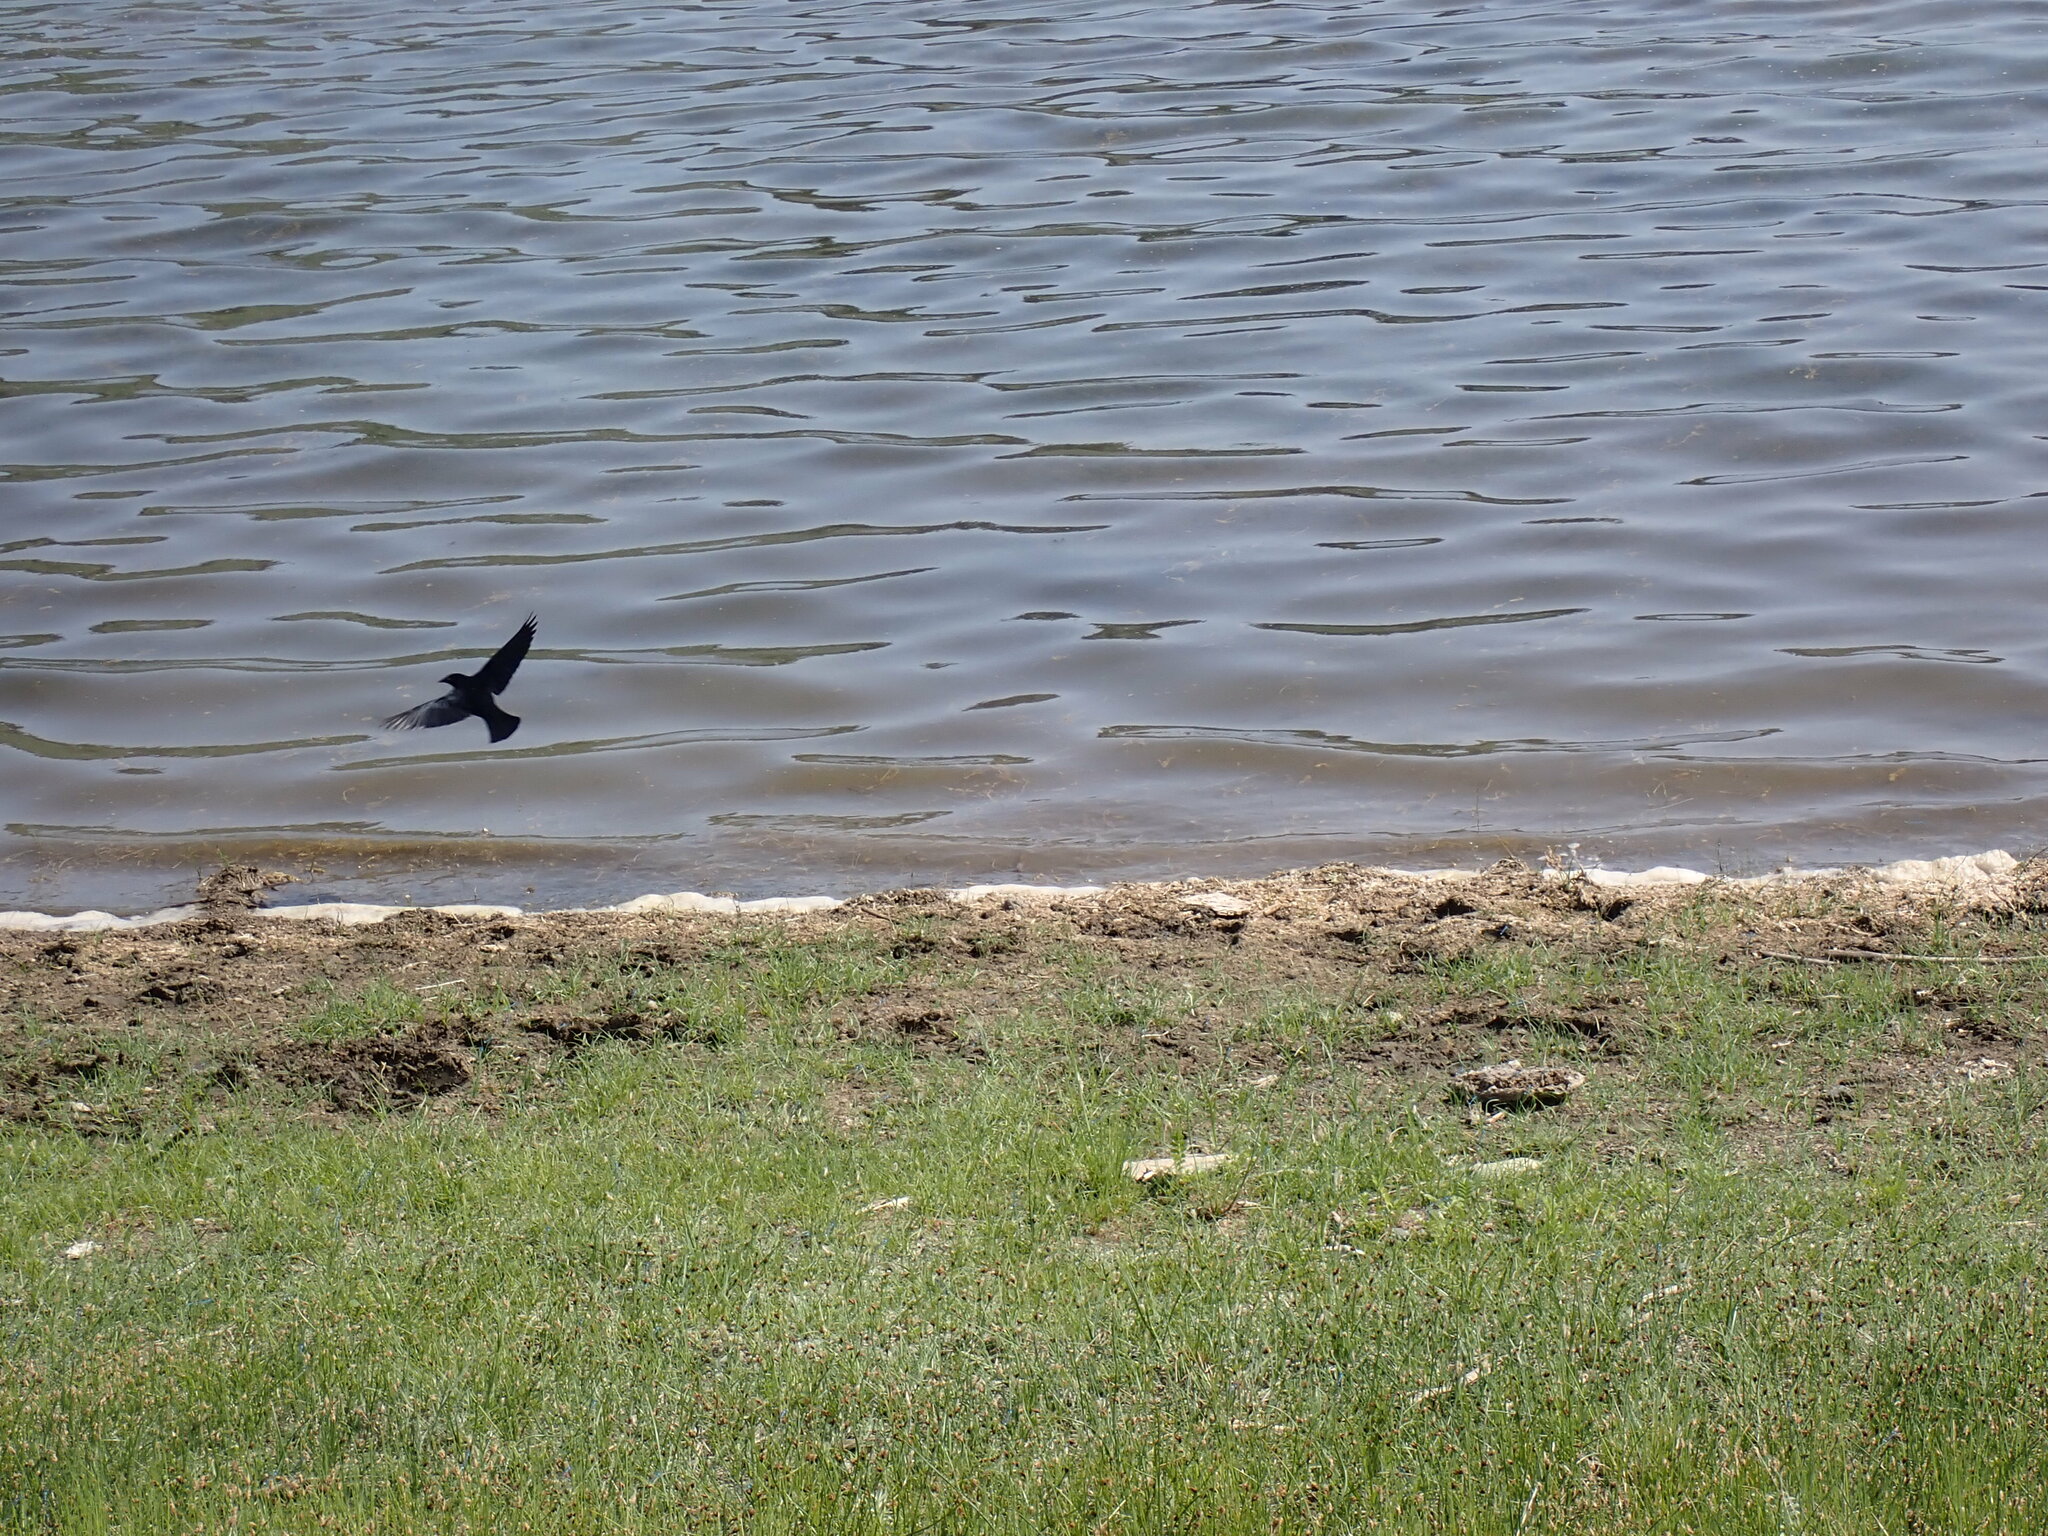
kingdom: Animalia
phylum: Chordata
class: Aves
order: Passeriformes
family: Corvidae
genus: Corvus
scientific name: Corvus brachyrhynchos
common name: American crow
